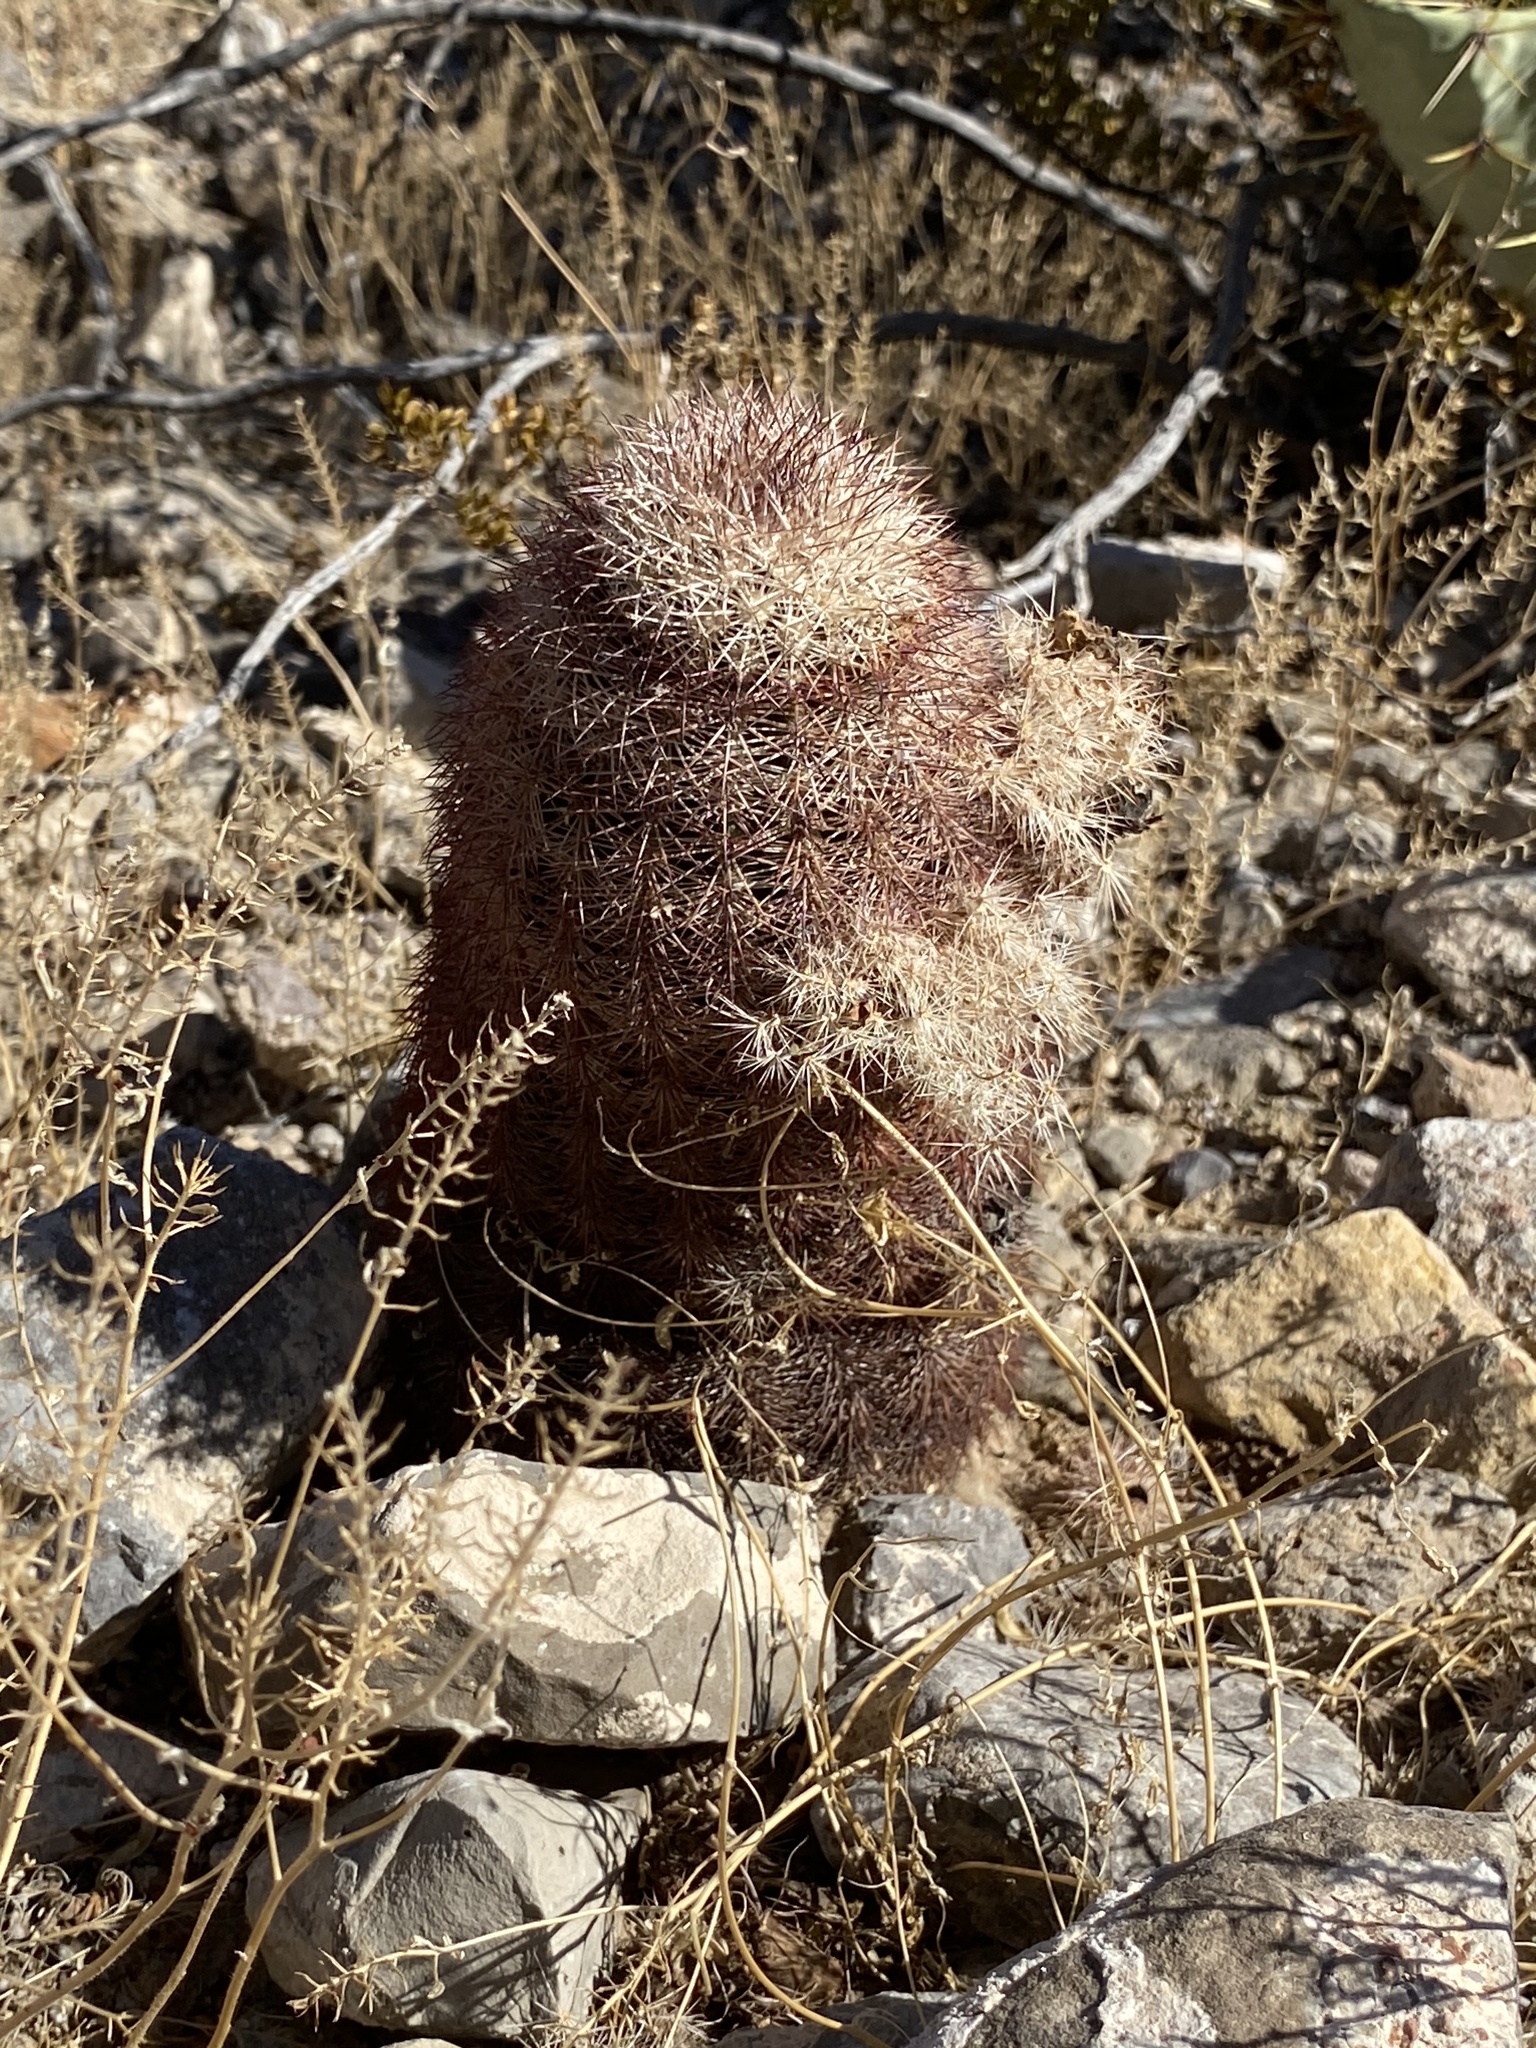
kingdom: Plantae
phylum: Tracheophyta
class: Magnoliopsida
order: Caryophyllales
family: Cactaceae
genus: Echinocereus
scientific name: Echinocereus dasyacanthus
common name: Spiny hedgehog cactus
